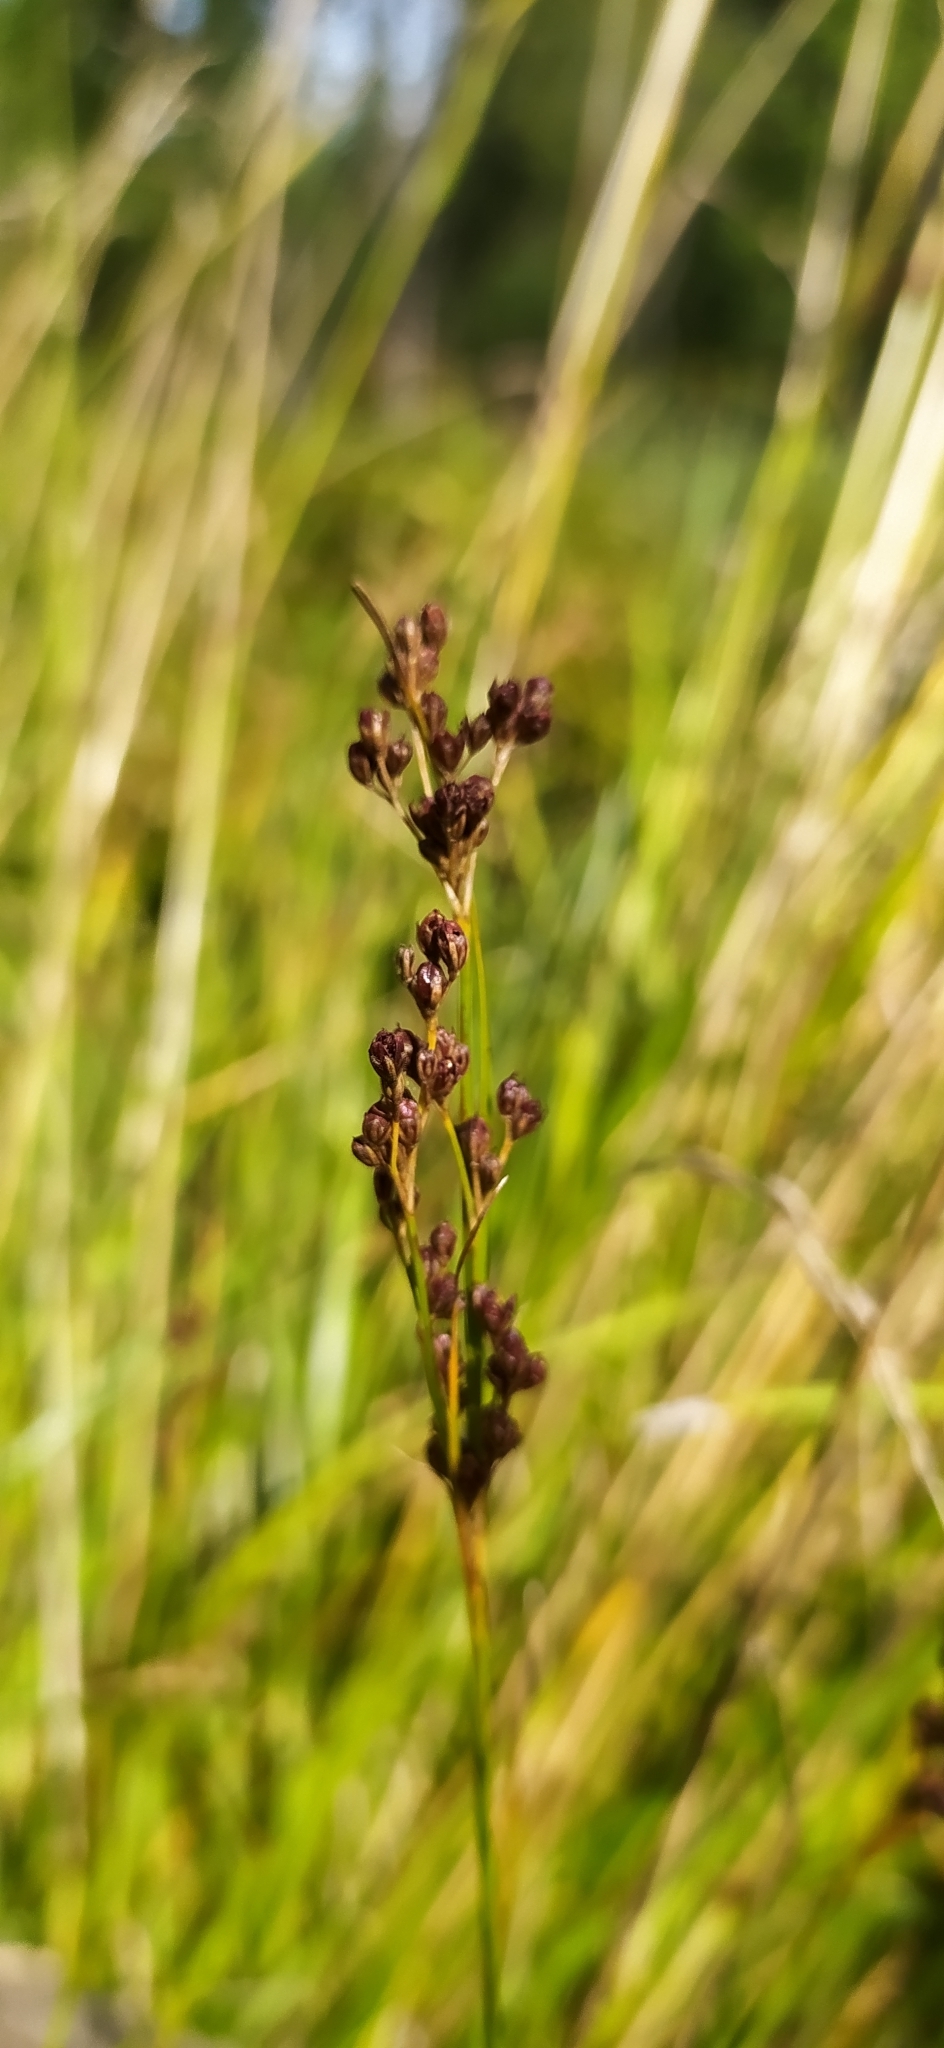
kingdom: Plantae
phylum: Tracheophyta
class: Liliopsida
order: Poales
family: Juncaceae
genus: Juncus
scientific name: Juncus compressus
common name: Round-fruited rush
